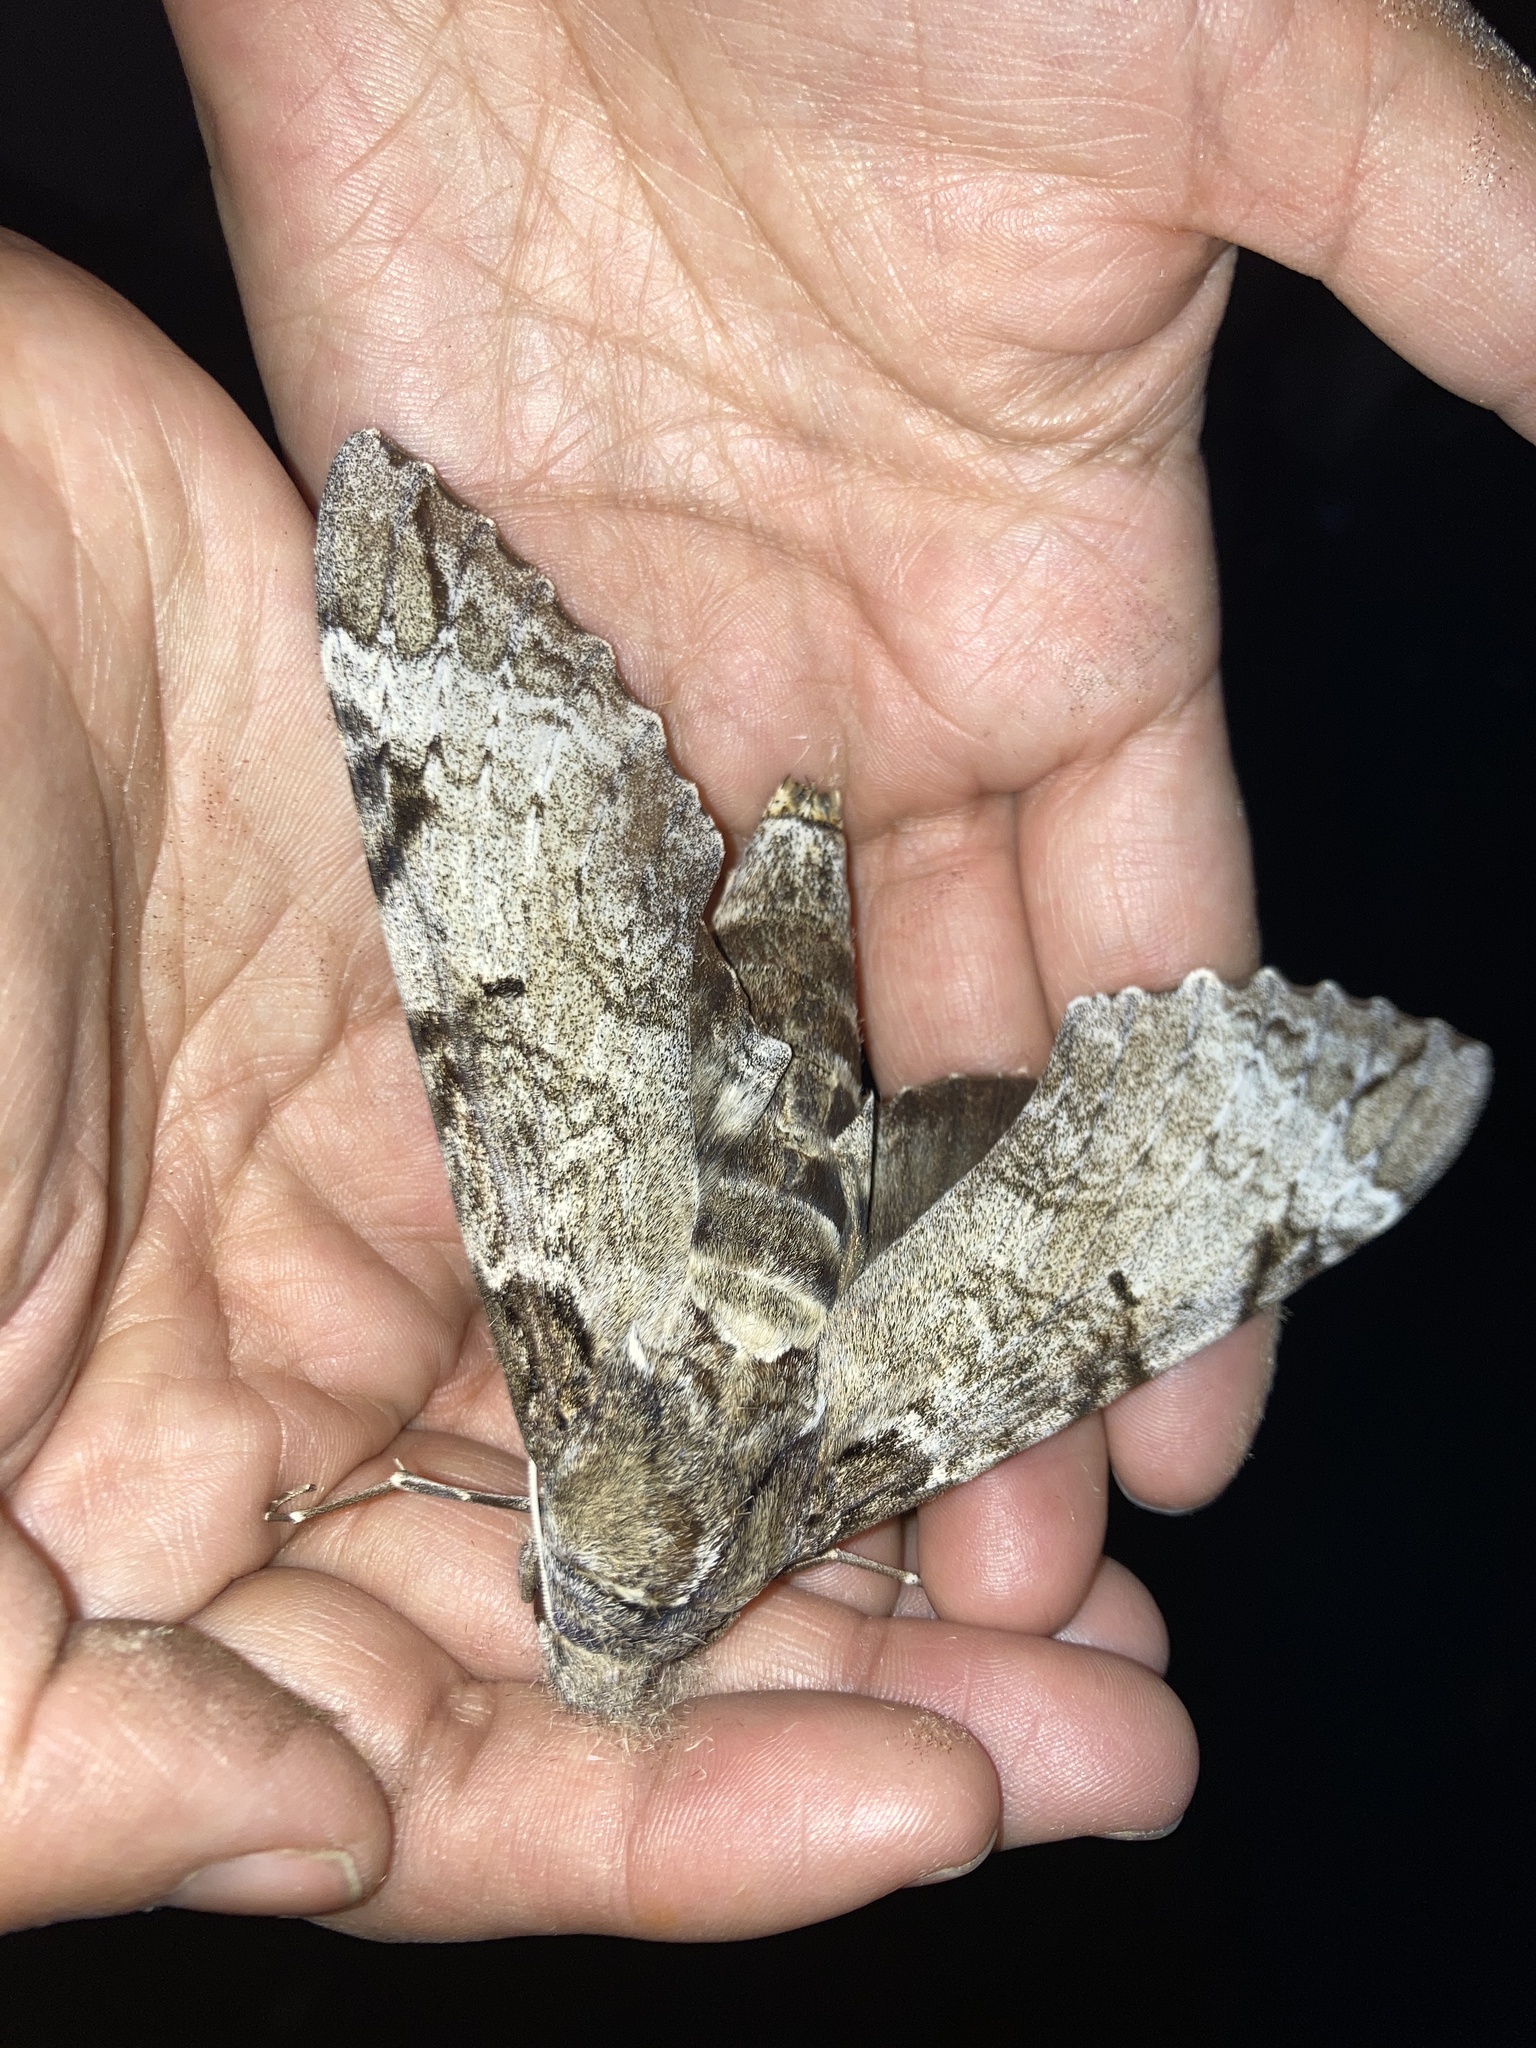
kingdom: Animalia
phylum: Arthropoda
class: Insecta
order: Lepidoptera
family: Sphingidae
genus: Pseudosphinx
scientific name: Pseudosphinx tetrio
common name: Tetrio sphinx
